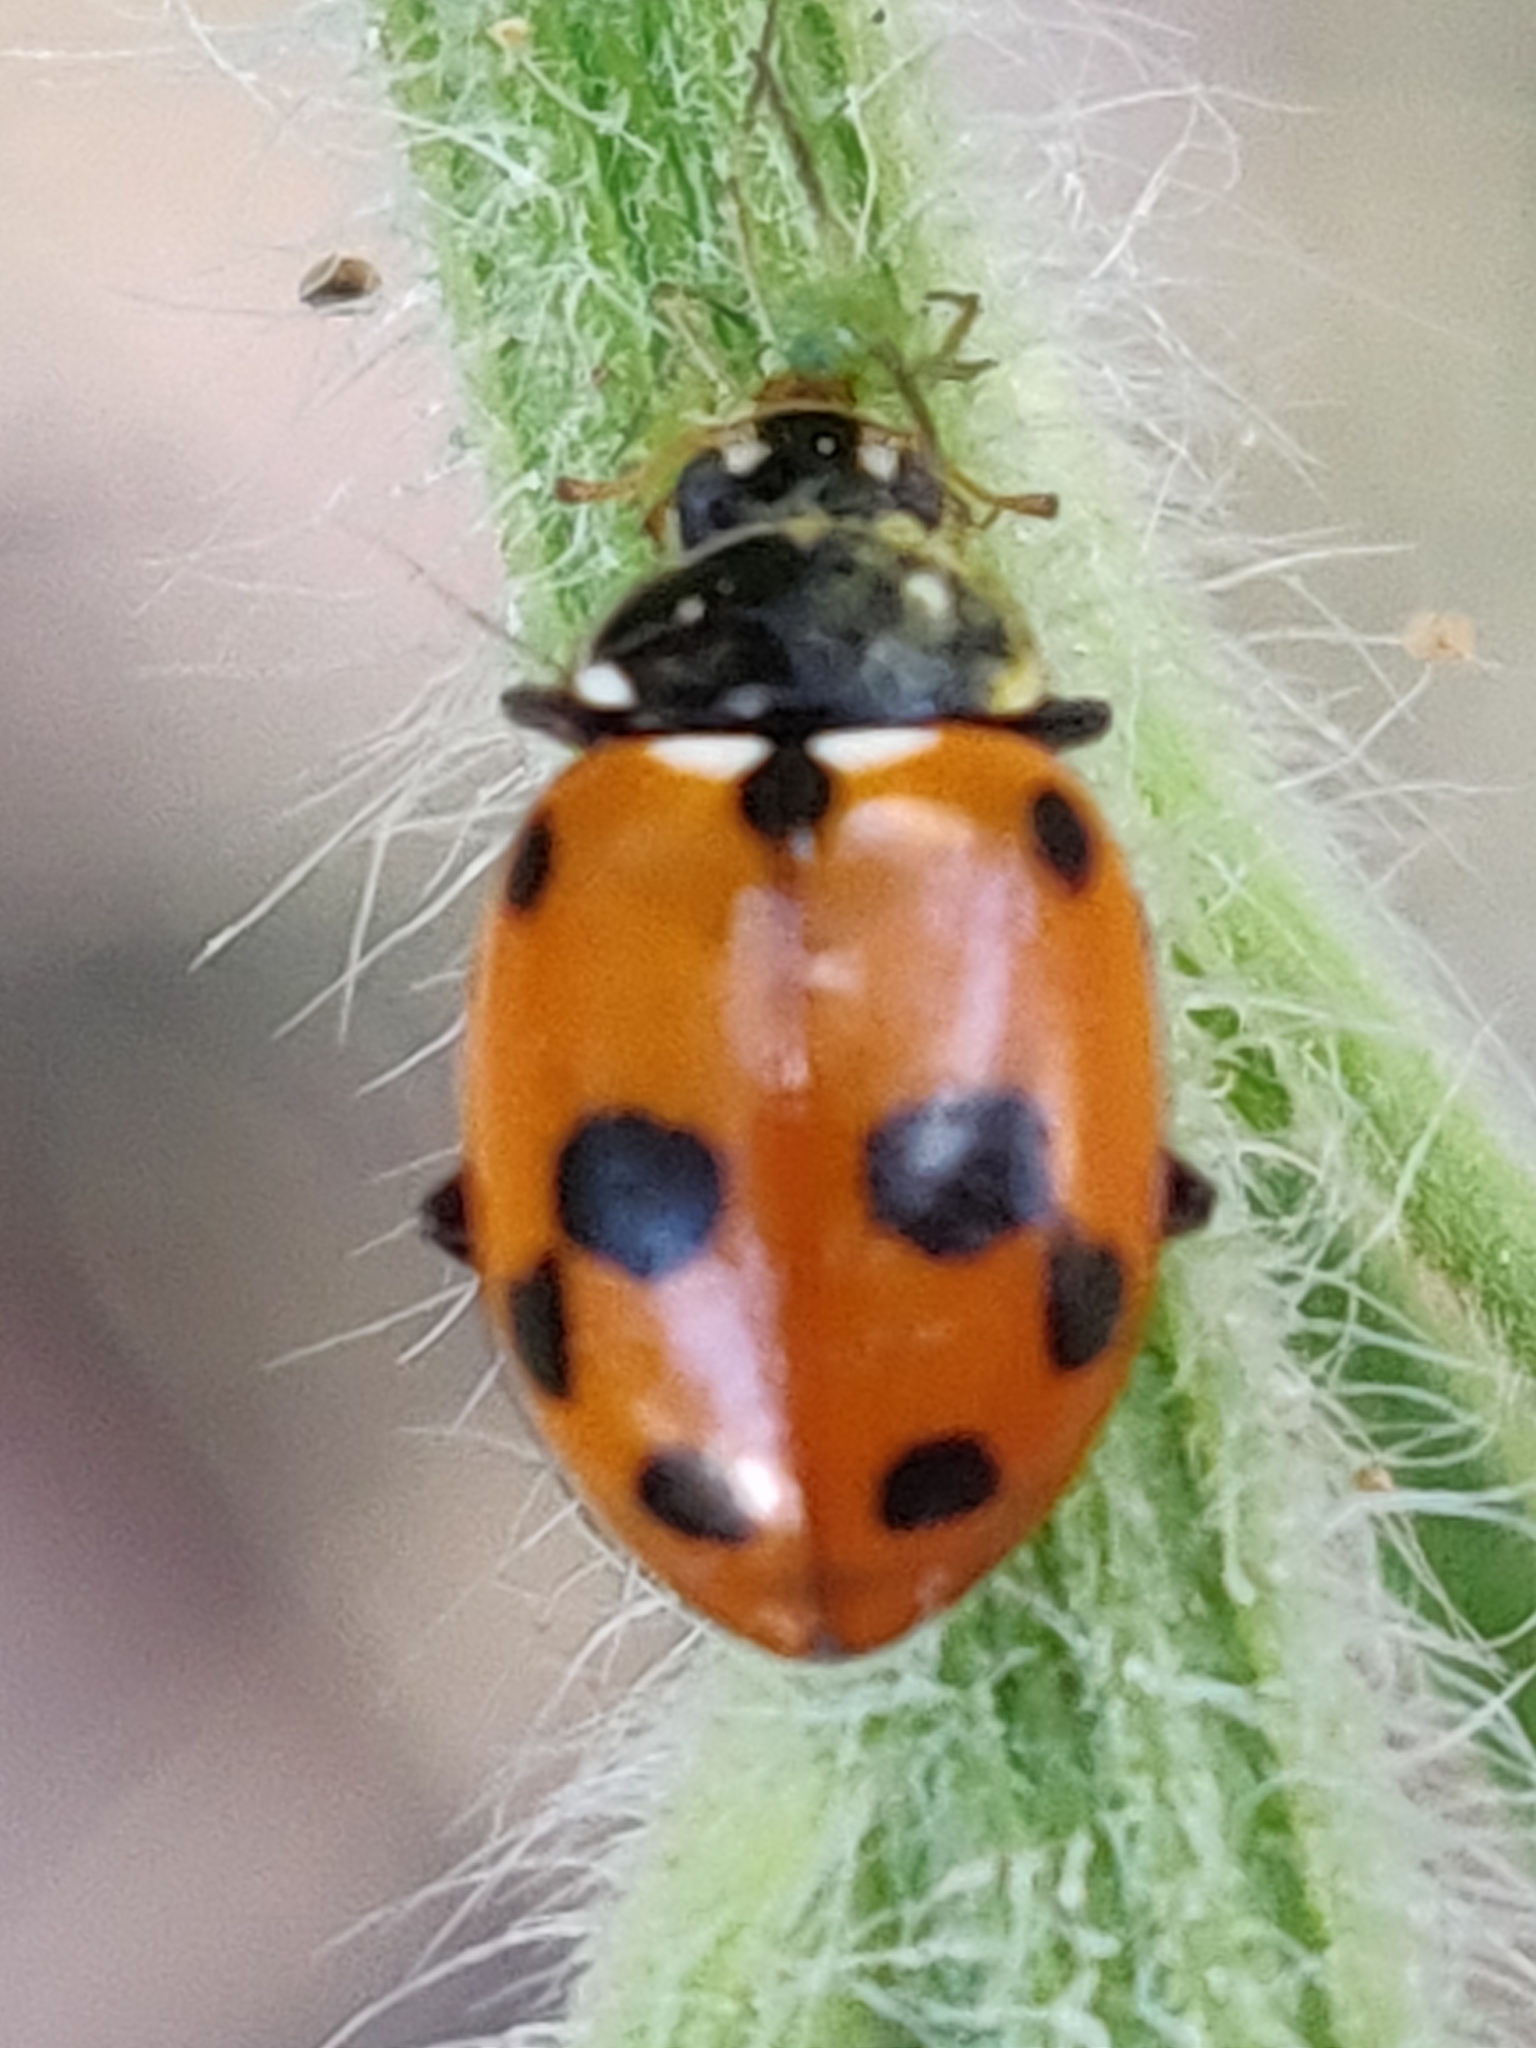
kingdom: Animalia
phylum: Arthropoda
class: Insecta
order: Coleoptera
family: Coccinellidae
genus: Hippodamia
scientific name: Hippodamia variegata
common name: Ladybird beetle
